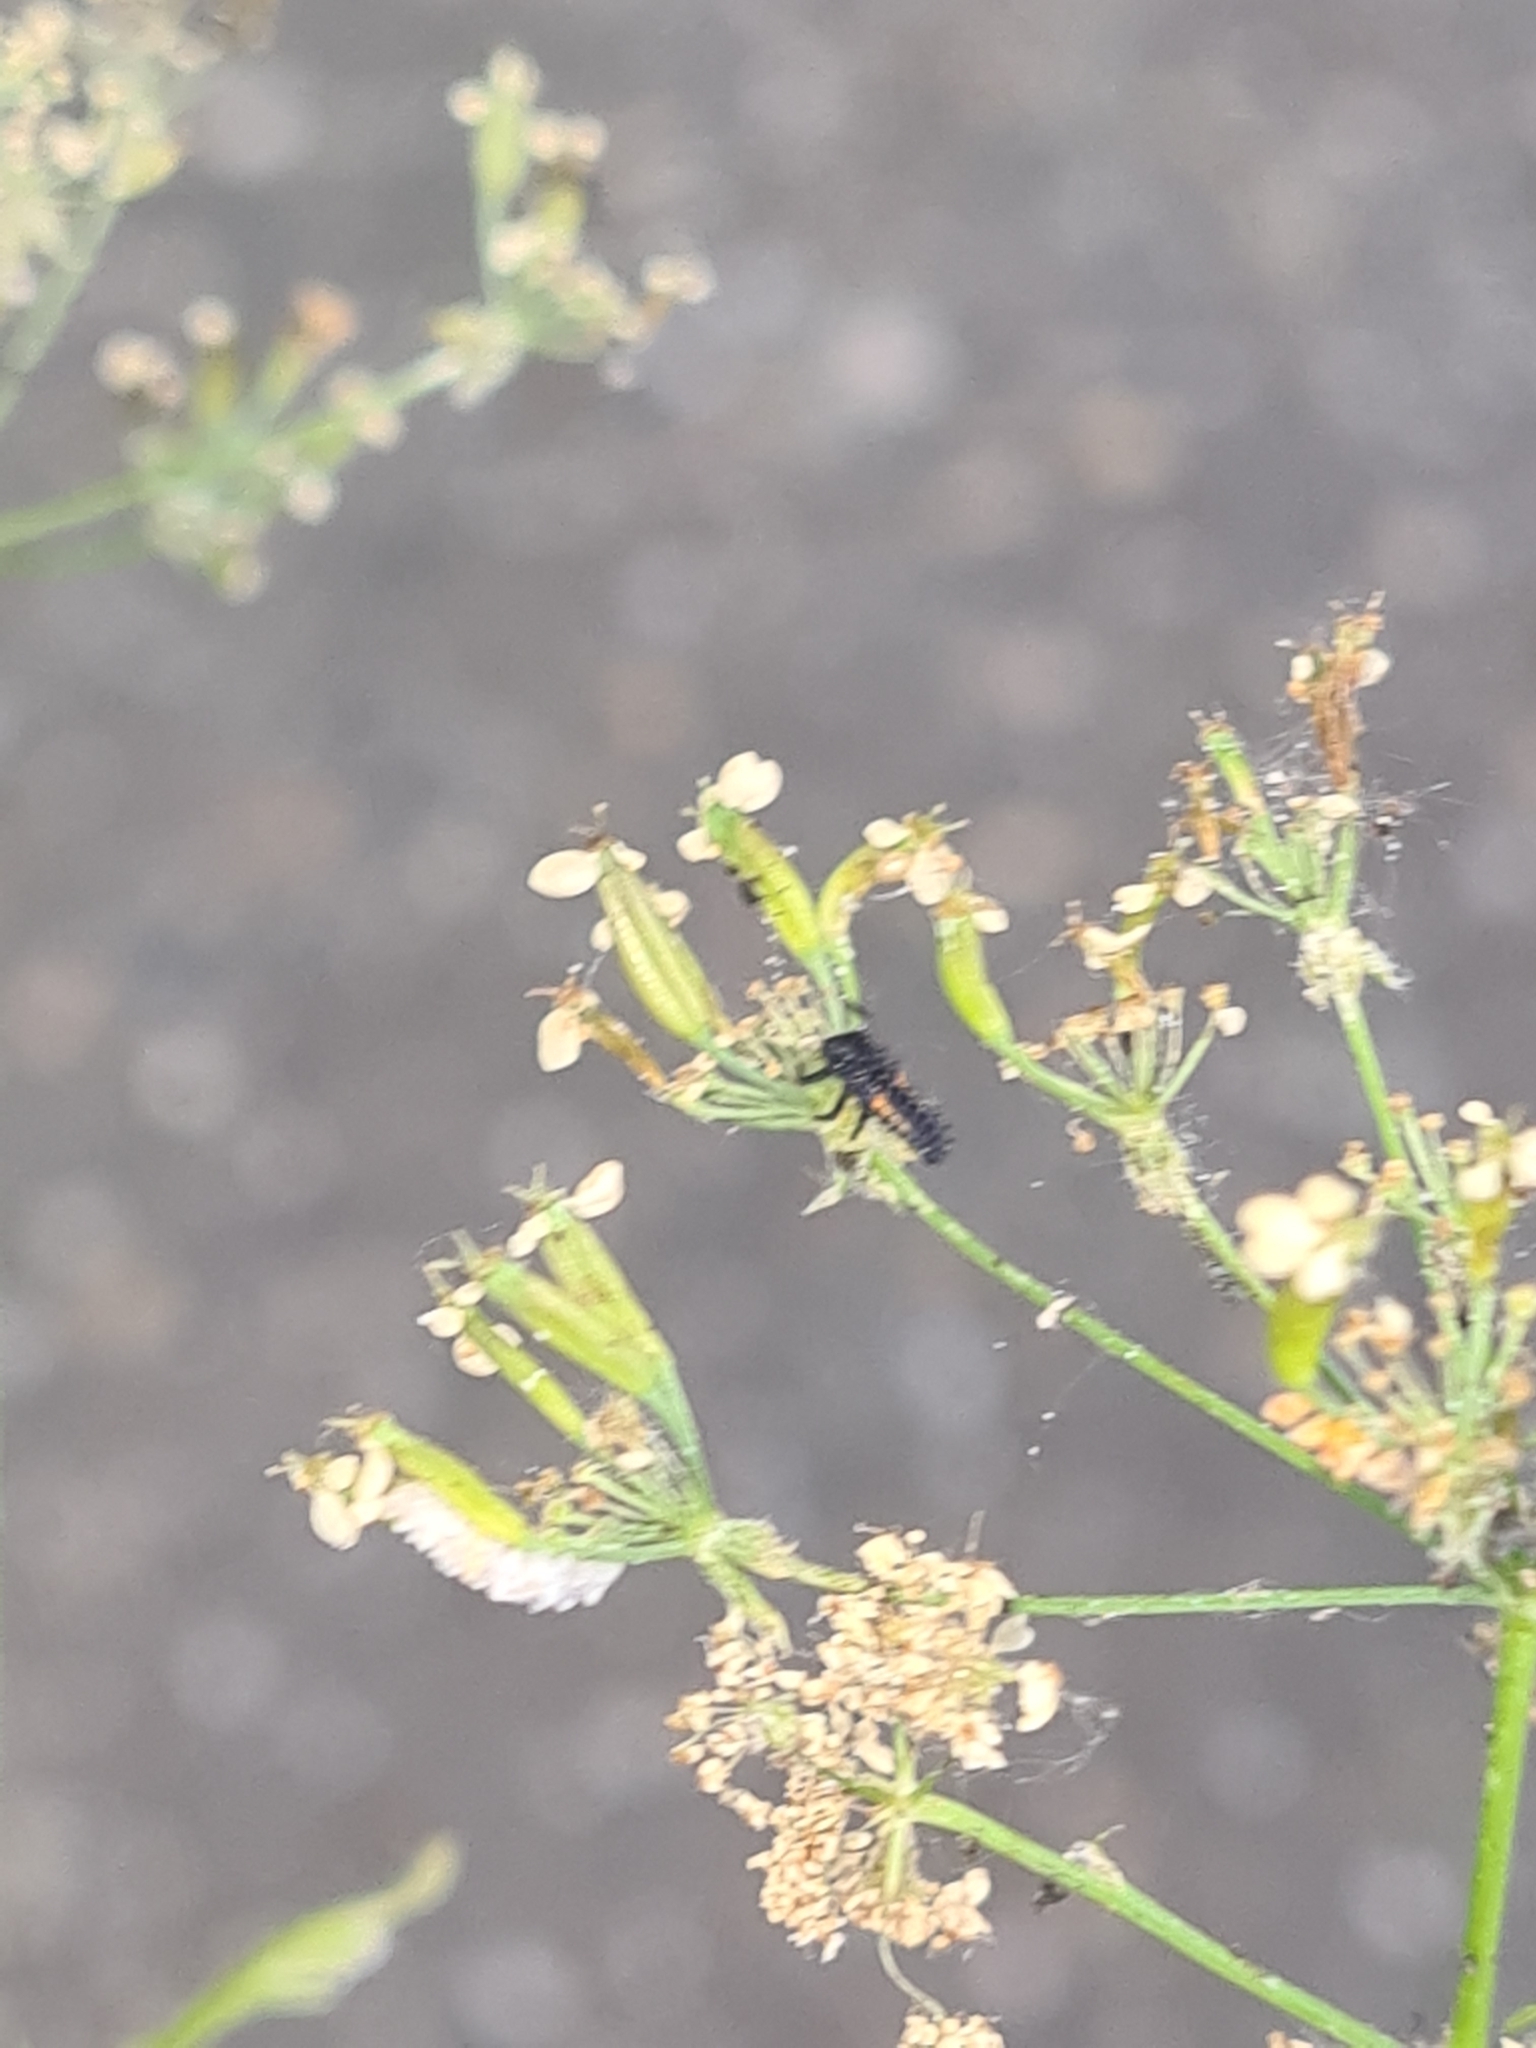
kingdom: Animalia
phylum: Arthropoda
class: Insecta
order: Coleoptera
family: Coccinellidae
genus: Harmonia
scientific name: Harmonia axyridis
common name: Harlequin ladybird
